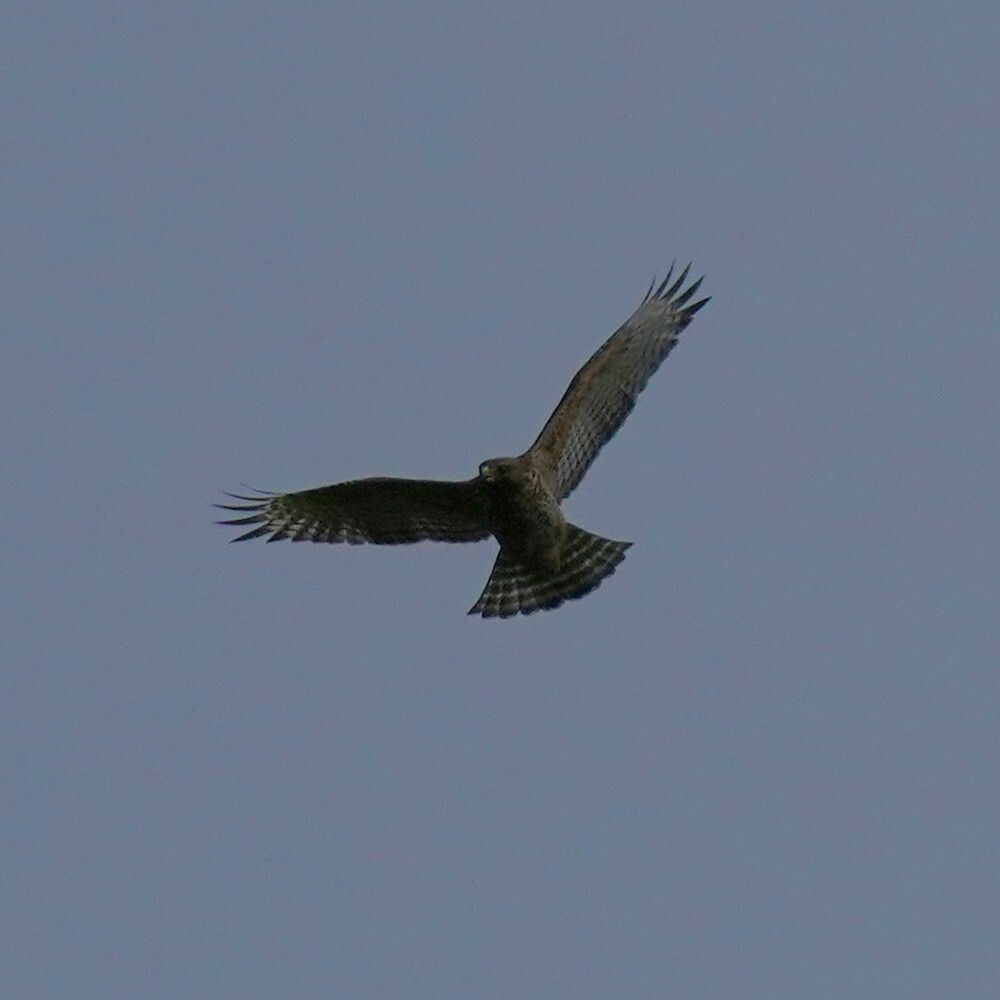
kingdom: Animalia
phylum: Chordata
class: Aves
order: Accipitriformes
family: Accipitridae
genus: Buteo
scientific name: Buteo lineatus
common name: Red-shouldered hawk
